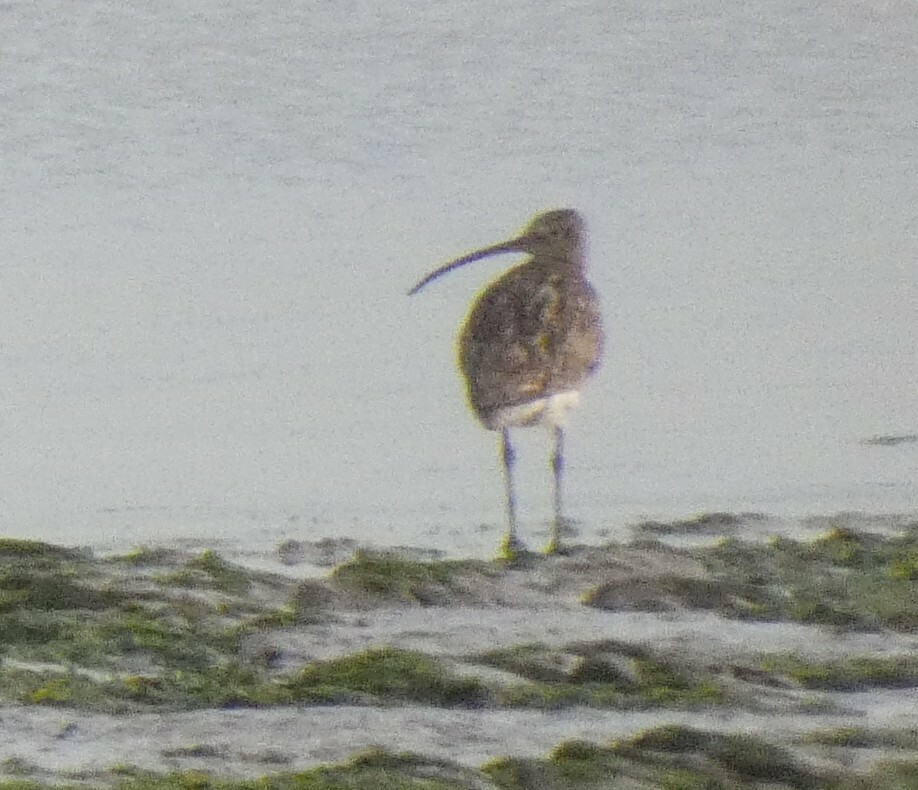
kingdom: Animalia
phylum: Chordata
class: Aves
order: Charadriiformes
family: Scolopacidae
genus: Numenius
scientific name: Numenius arquata
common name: Eurasian curlew
